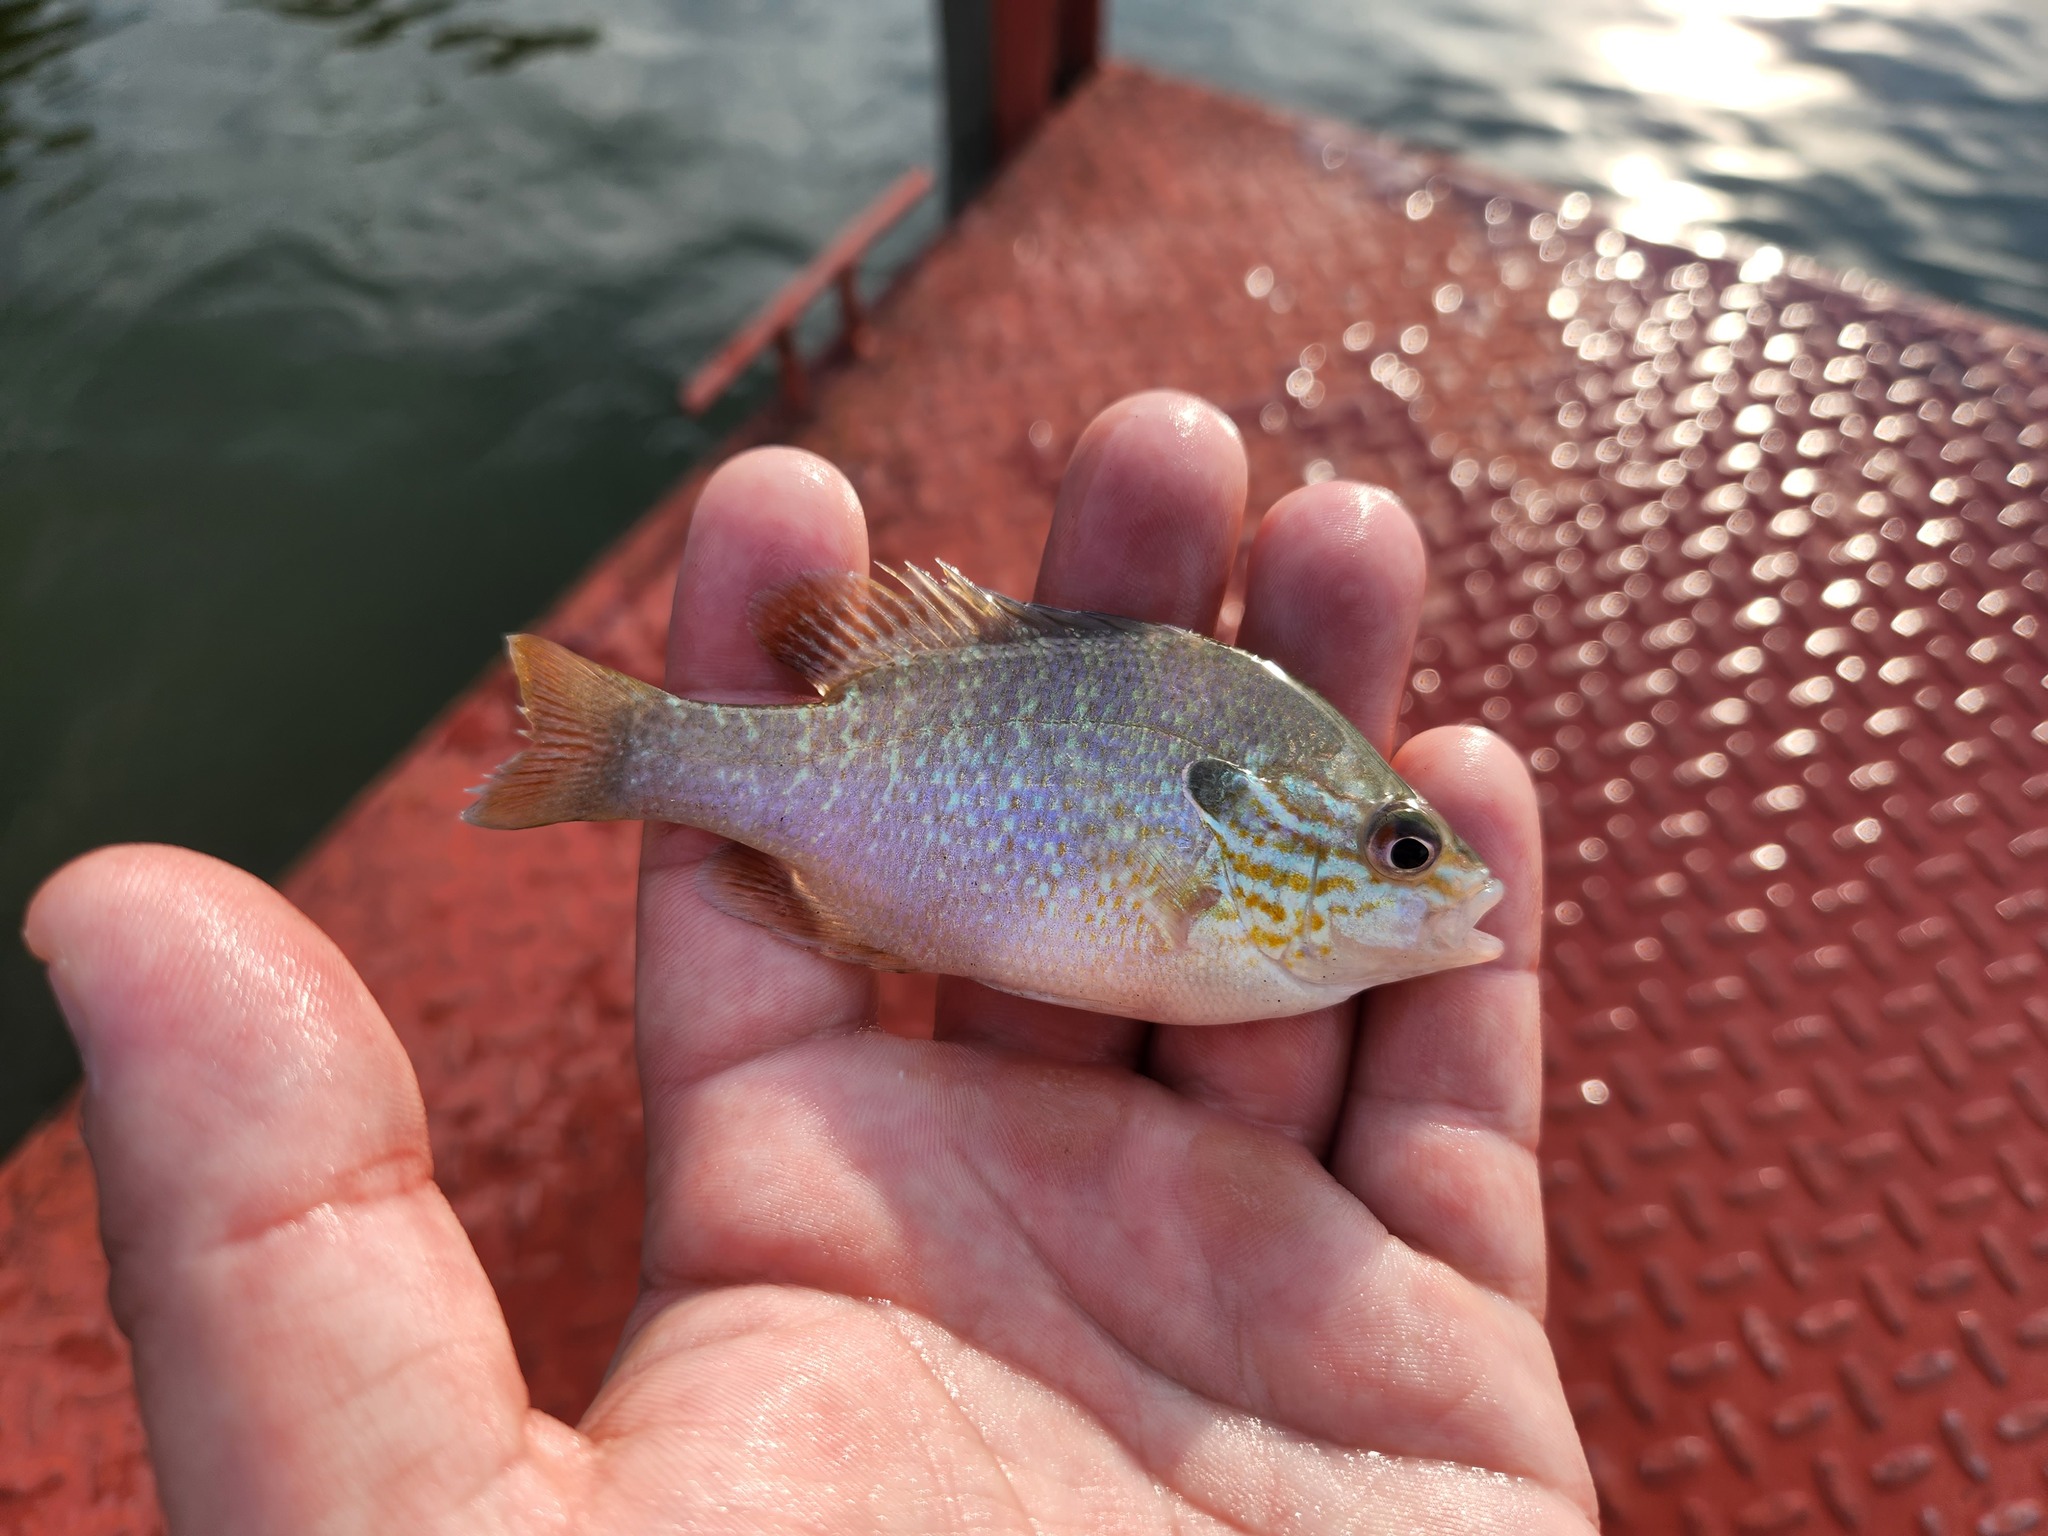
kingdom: Animalia
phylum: Chordata
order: Perciformes
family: Centrarchidae
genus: Lepomis
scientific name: Lepomis megalotis
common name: Longear sunfish
